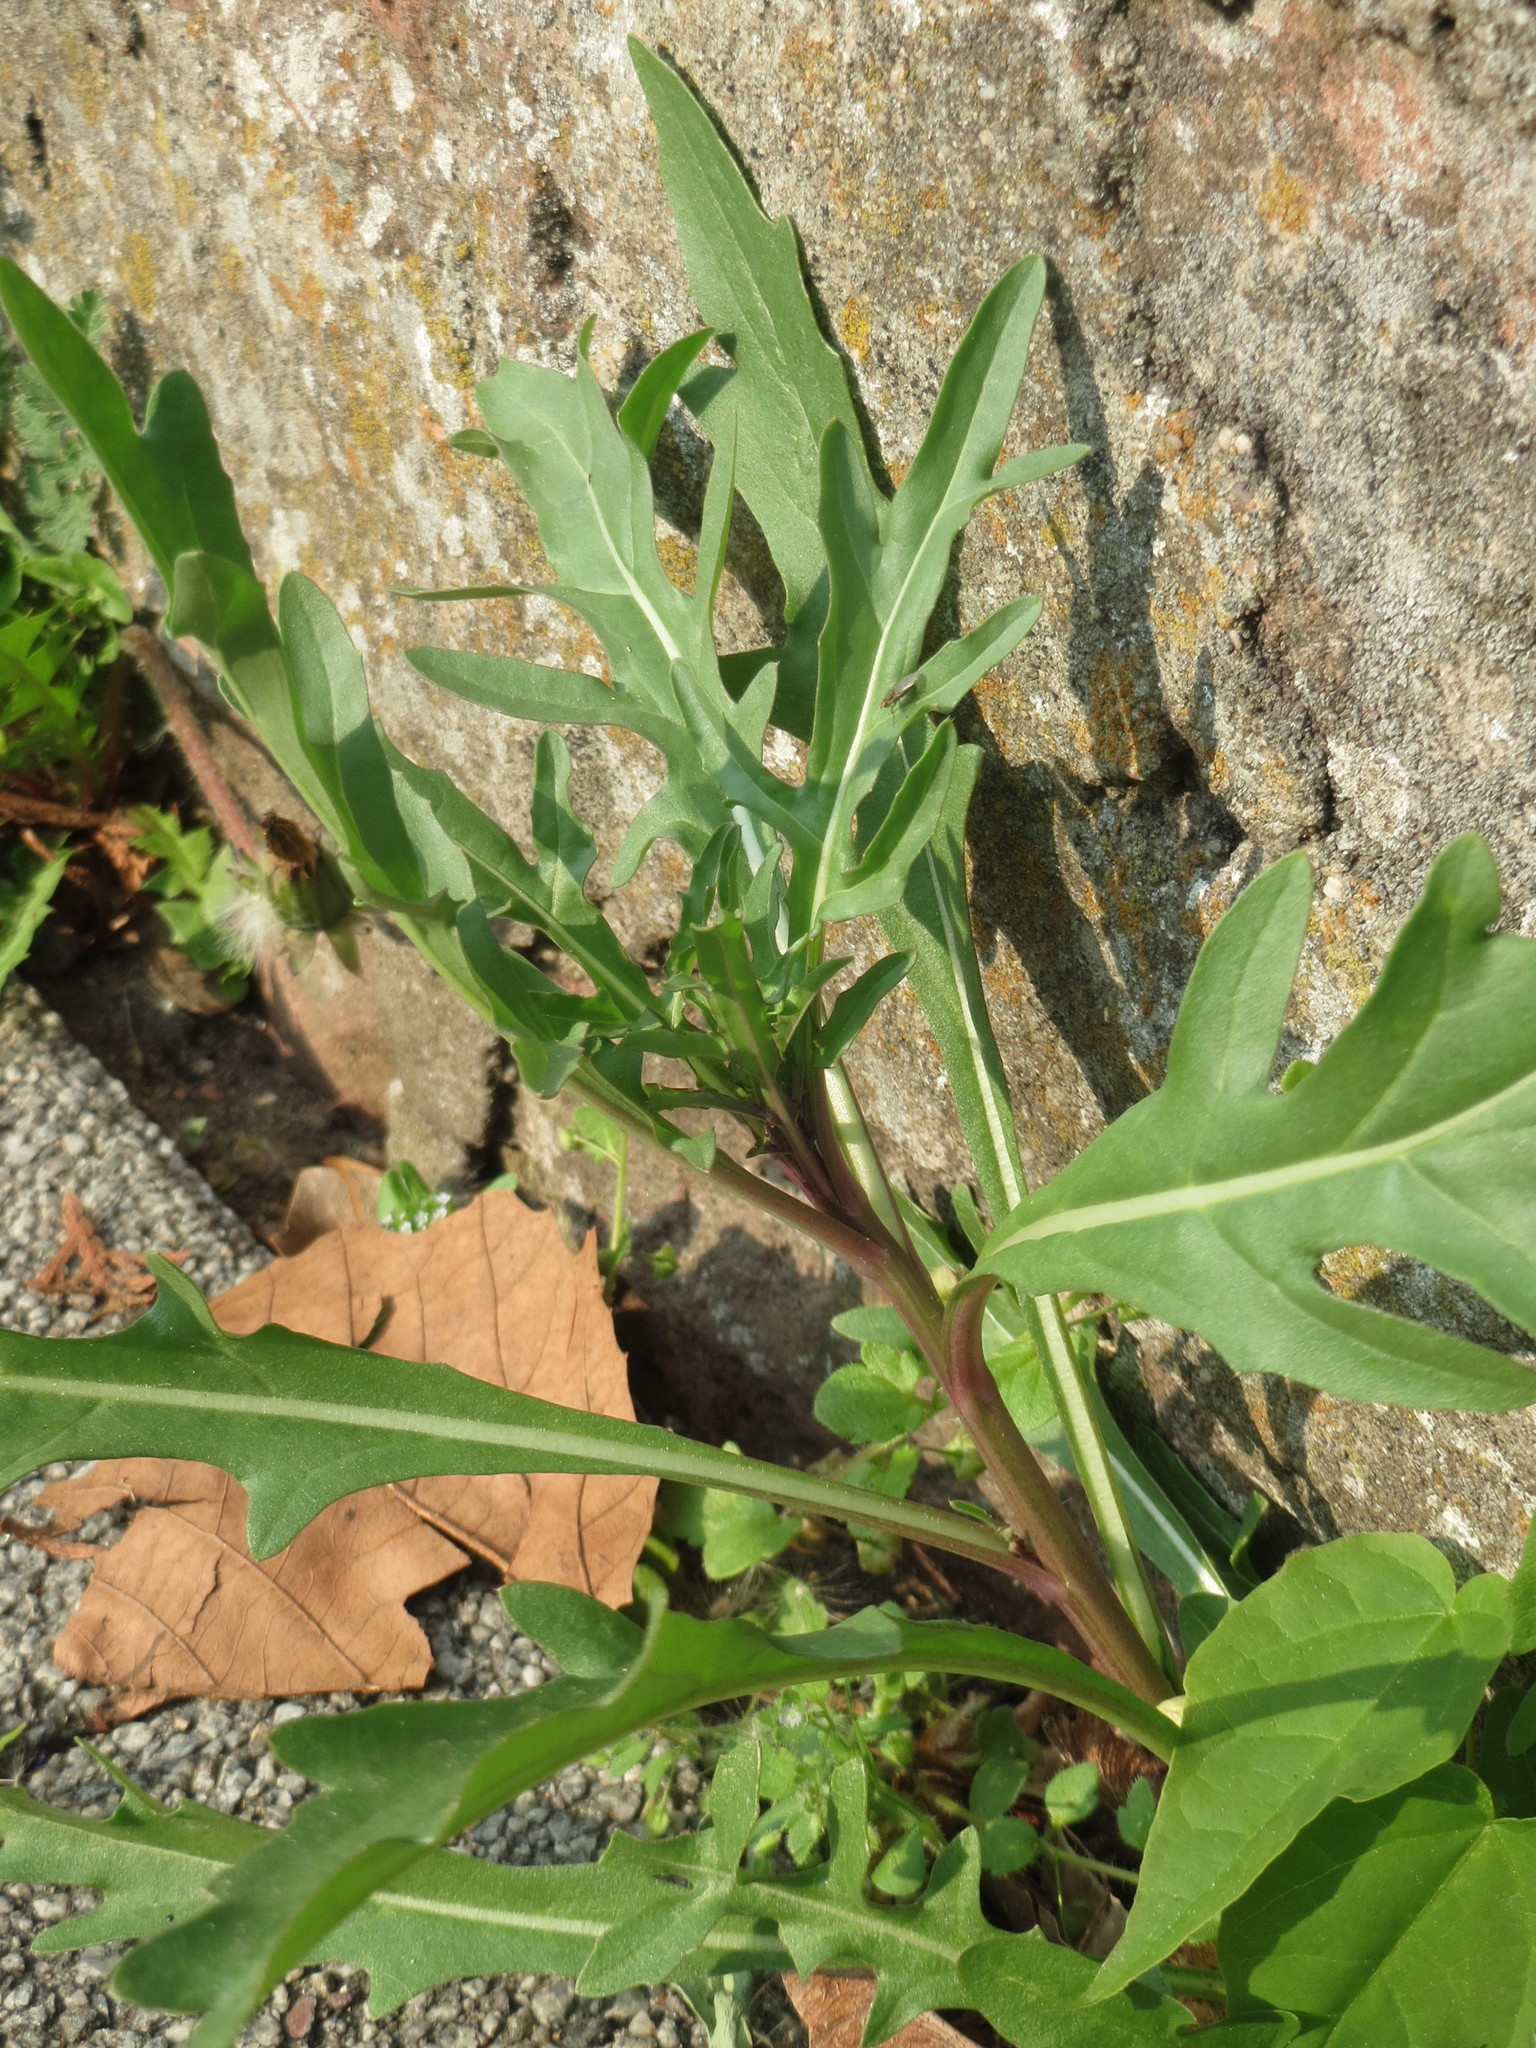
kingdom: Plantae
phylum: Tracheophyta
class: Magnoliopsida
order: Brassicales
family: Brassicaceae
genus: Diplotaxis
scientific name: Diplotaxis tenuifolia
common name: Perennial wall-rocket
